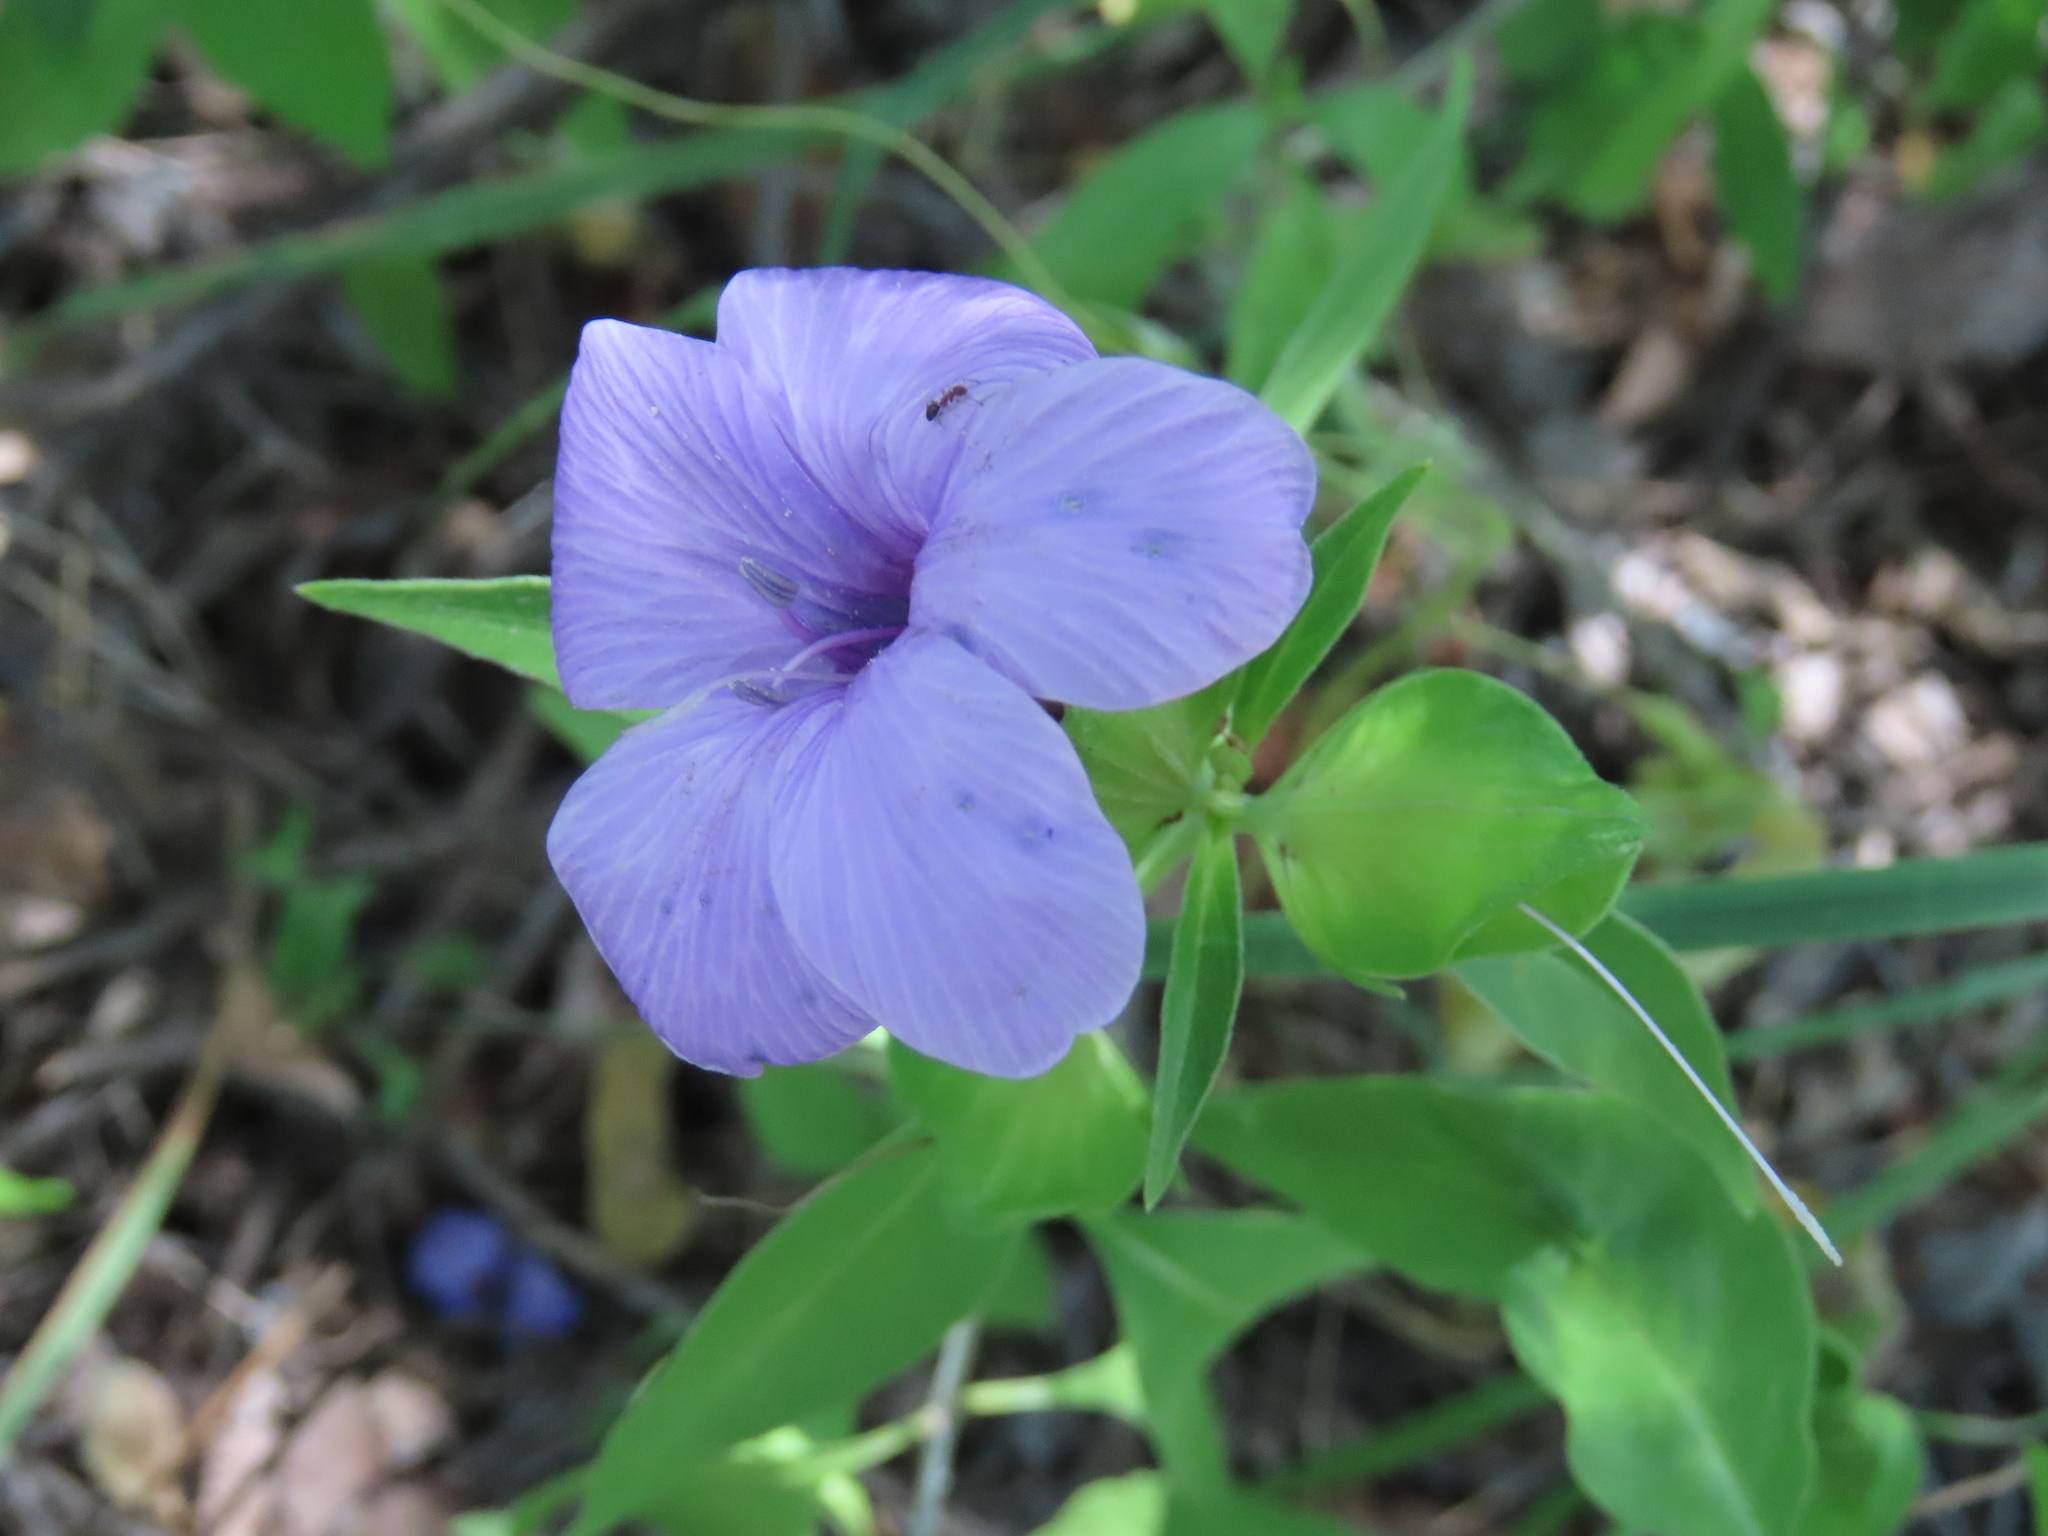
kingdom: Plantae
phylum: Tracheophyta
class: Magnoliopsida
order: Lamiales
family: Acanthaceae
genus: Barleria
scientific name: Barleria mackenii
